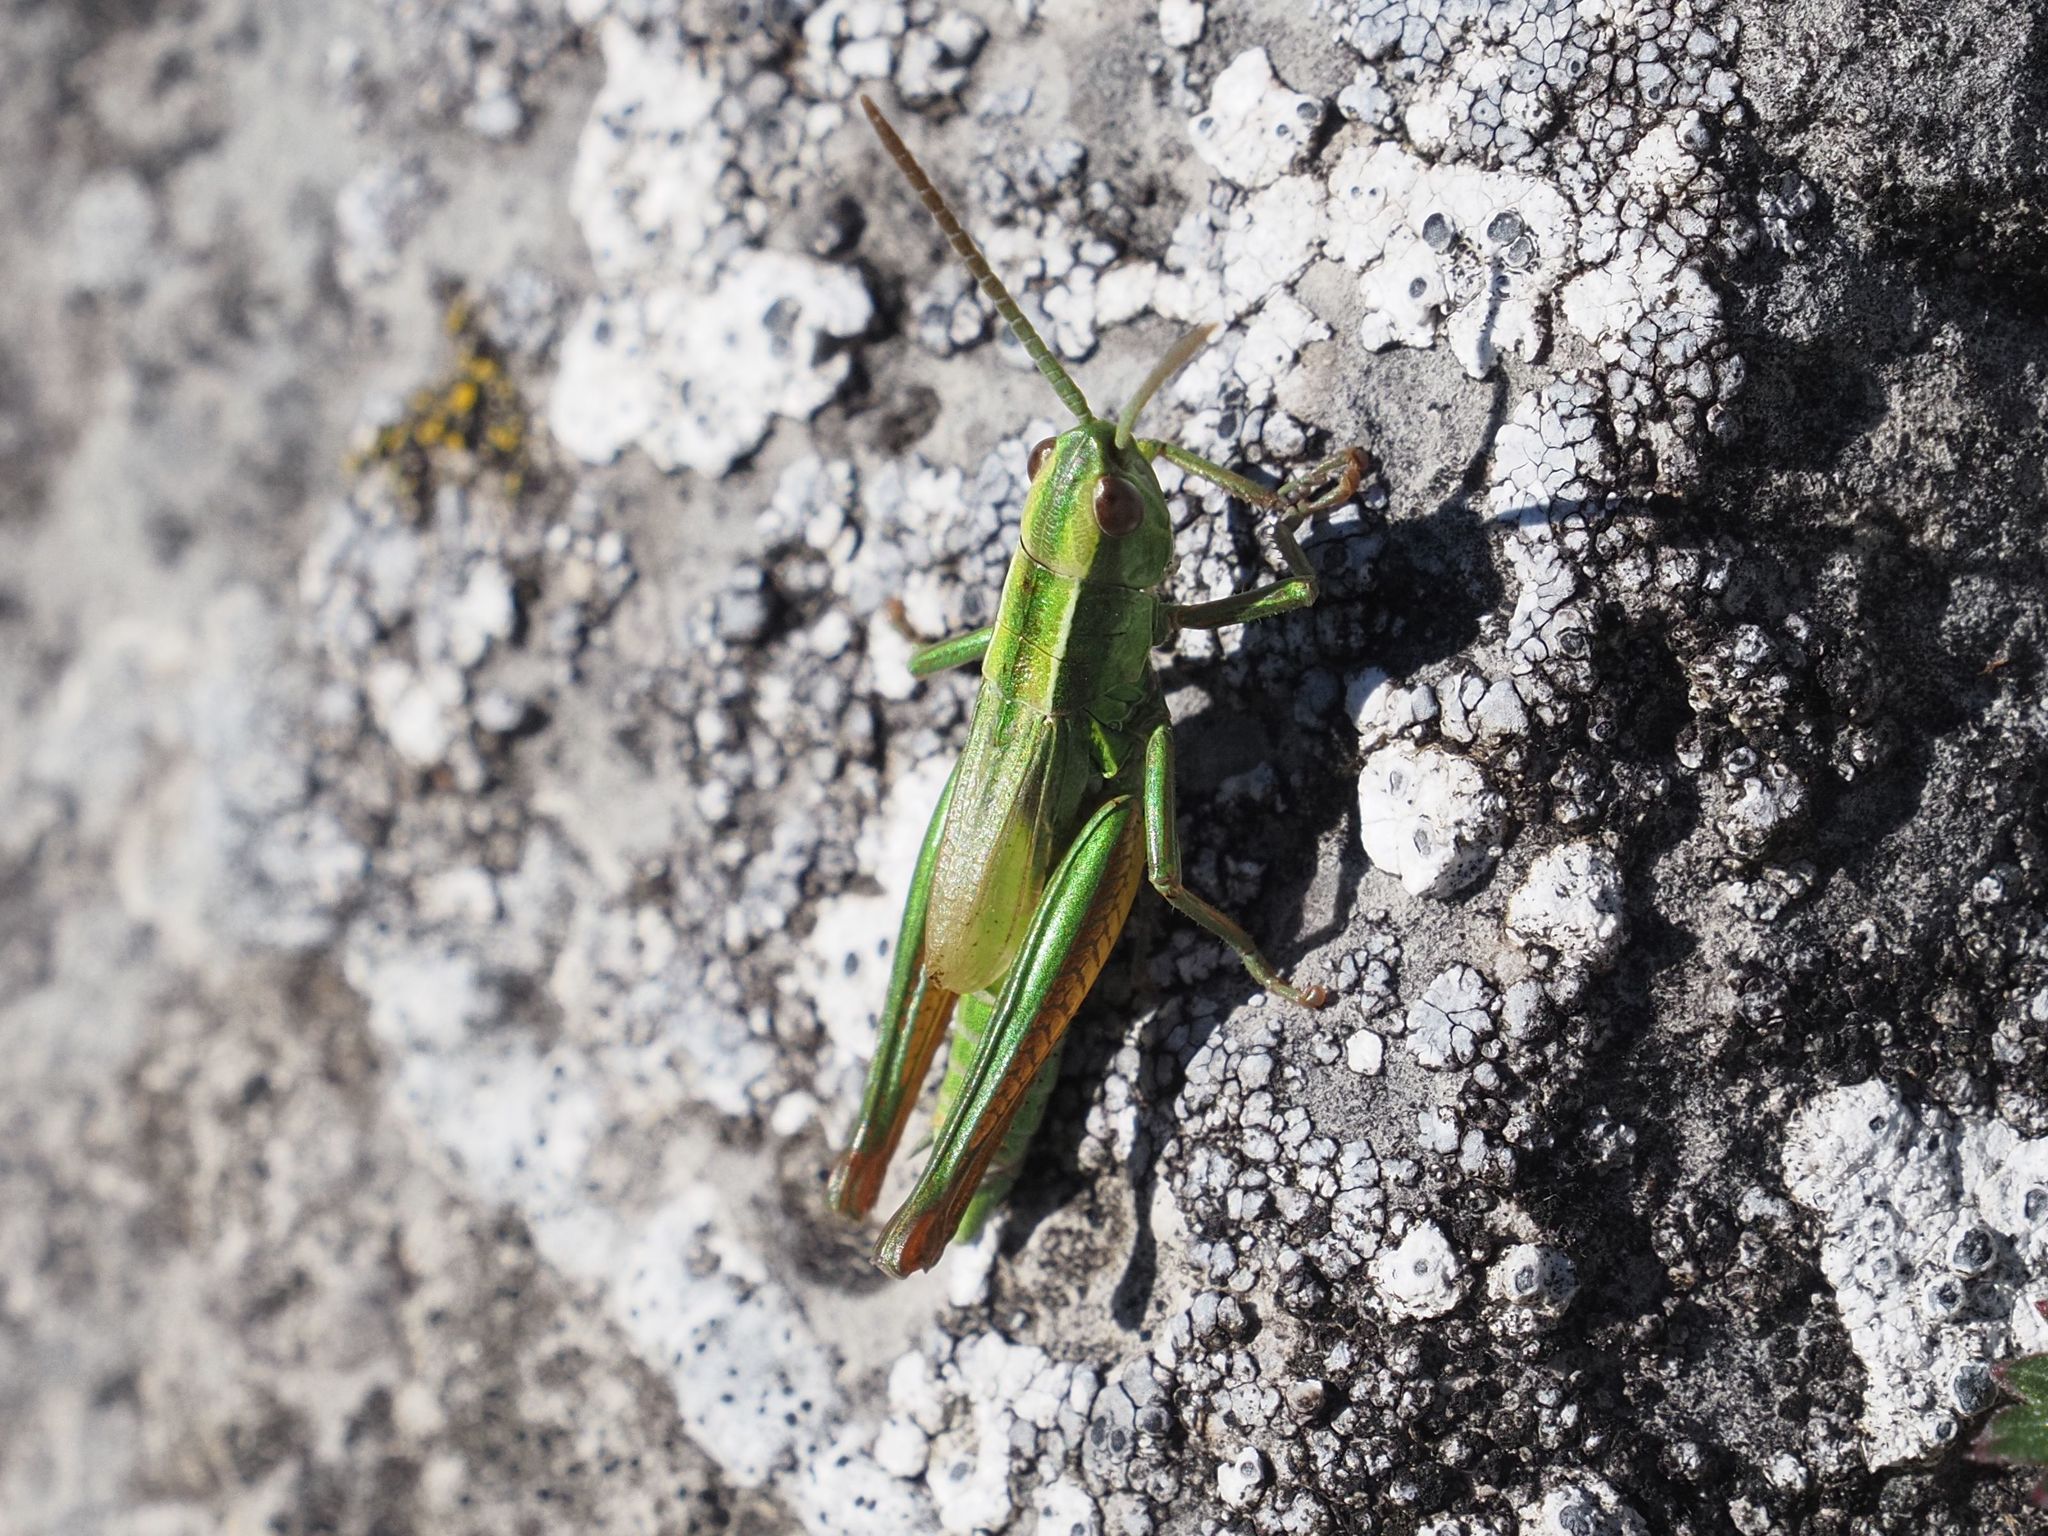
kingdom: Animalia
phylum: Arthropoda
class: Insecta
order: Orthoptera
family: Acrididae
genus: Euthystira
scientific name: Euthystira brachyptera
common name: Small gold grasshopper
